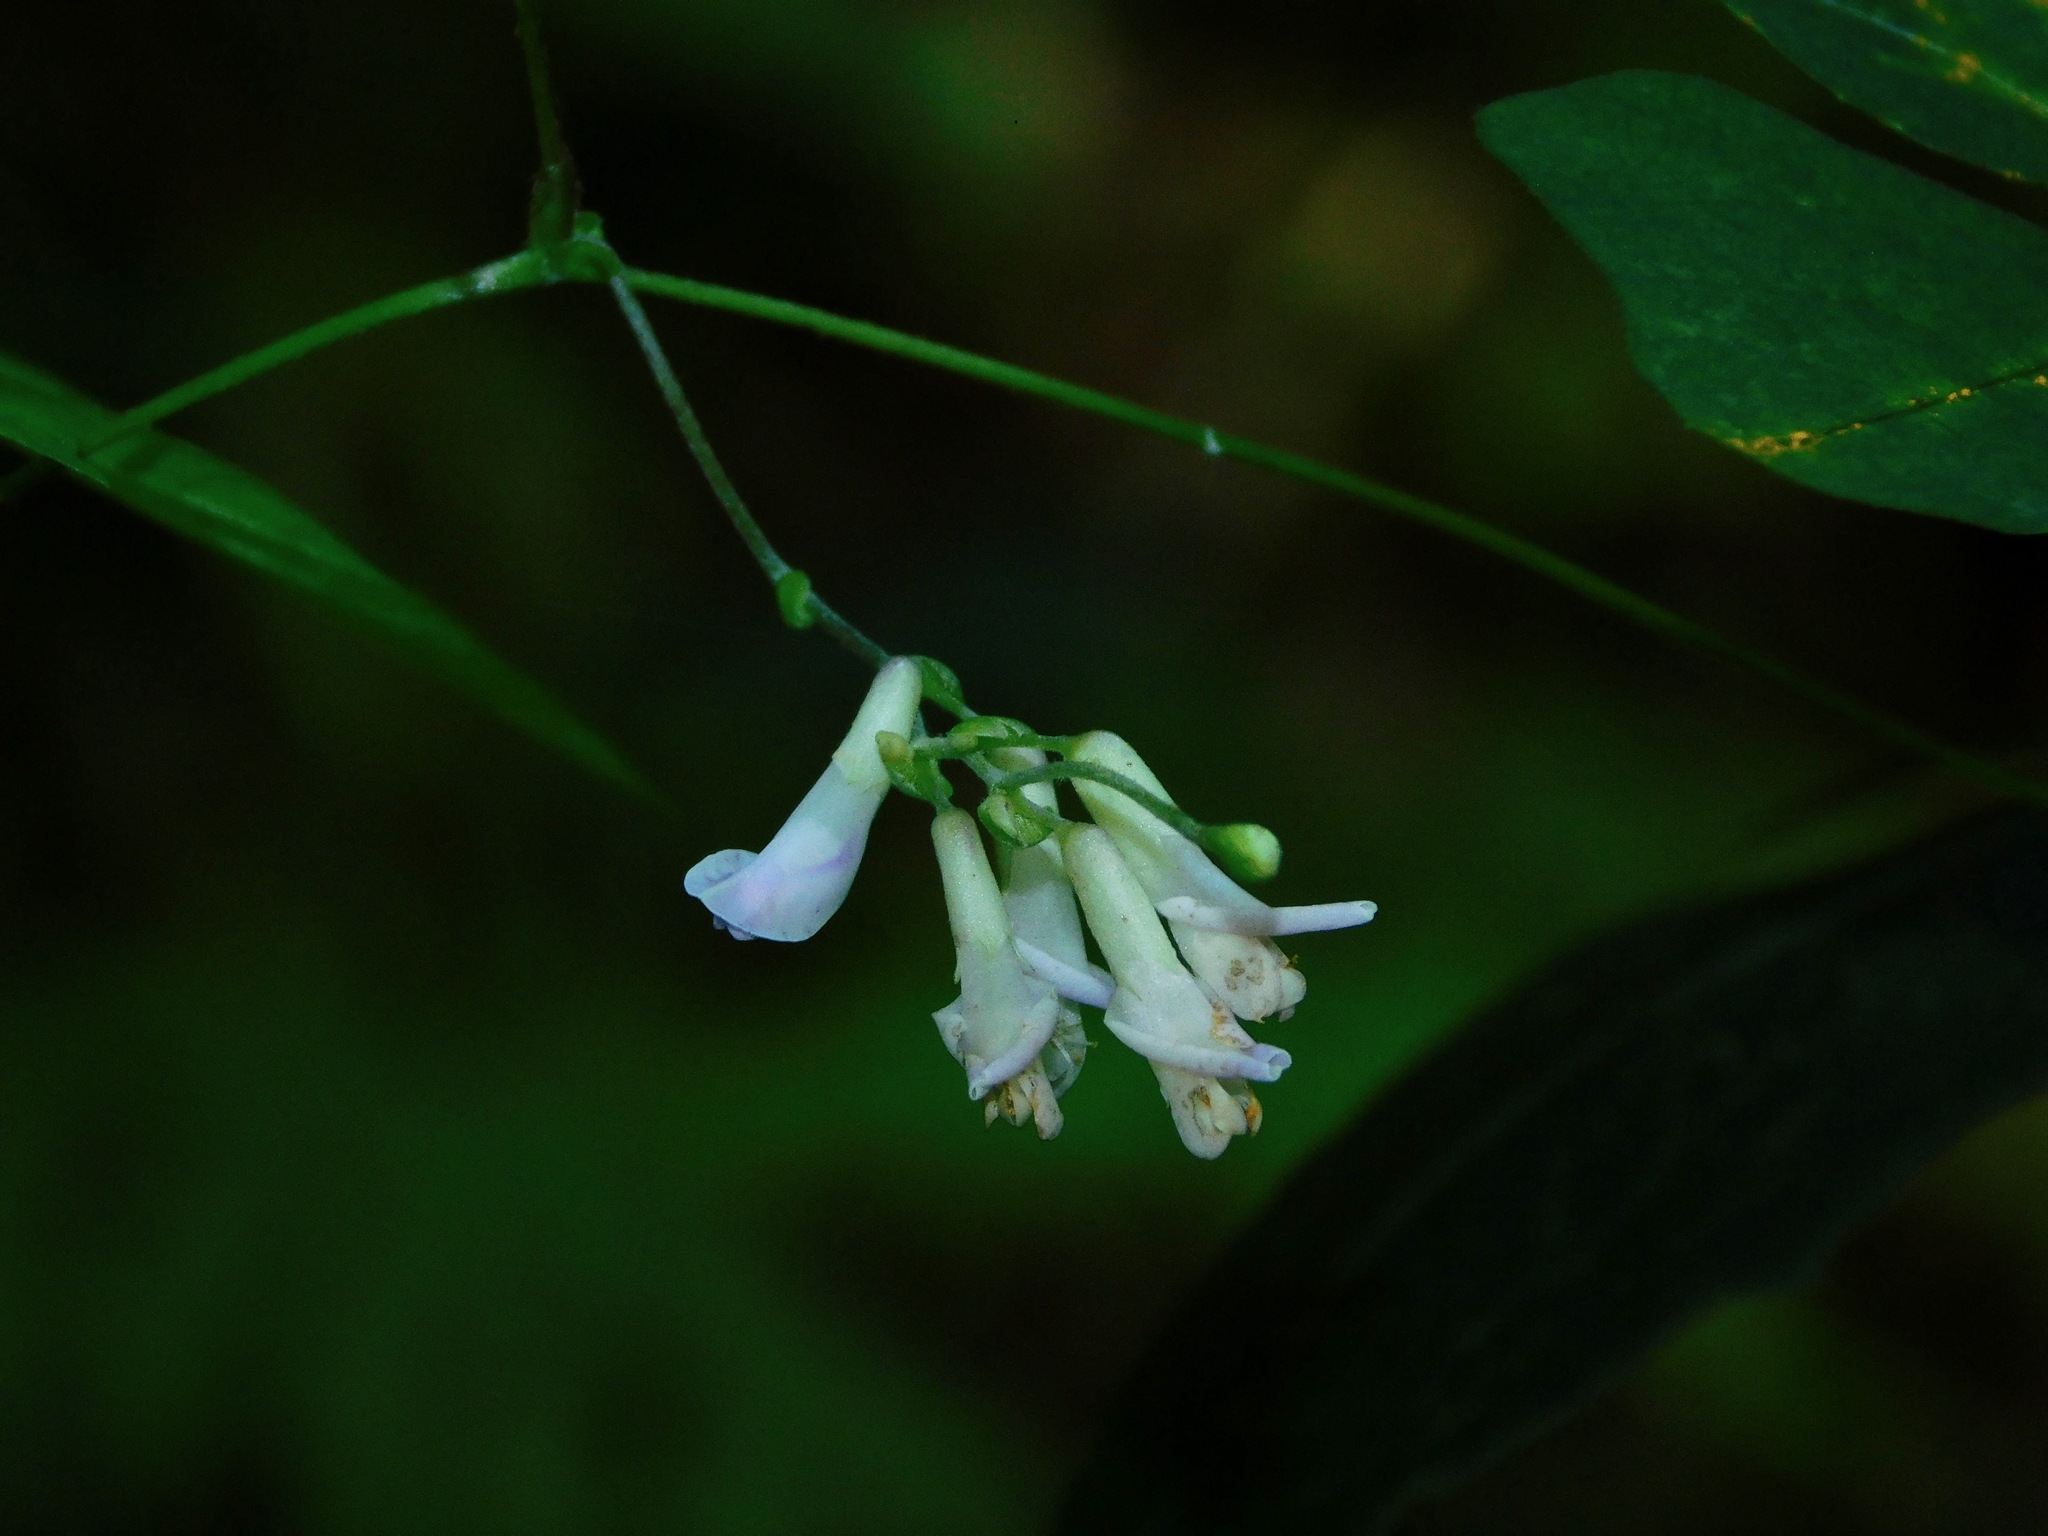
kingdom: Plantae
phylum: Tracheophyta
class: Magnoliopsida
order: Fabales
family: Fabaceae
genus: Amphicarpaea
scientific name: Amphicarpaea bracteata
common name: American hog peanut
